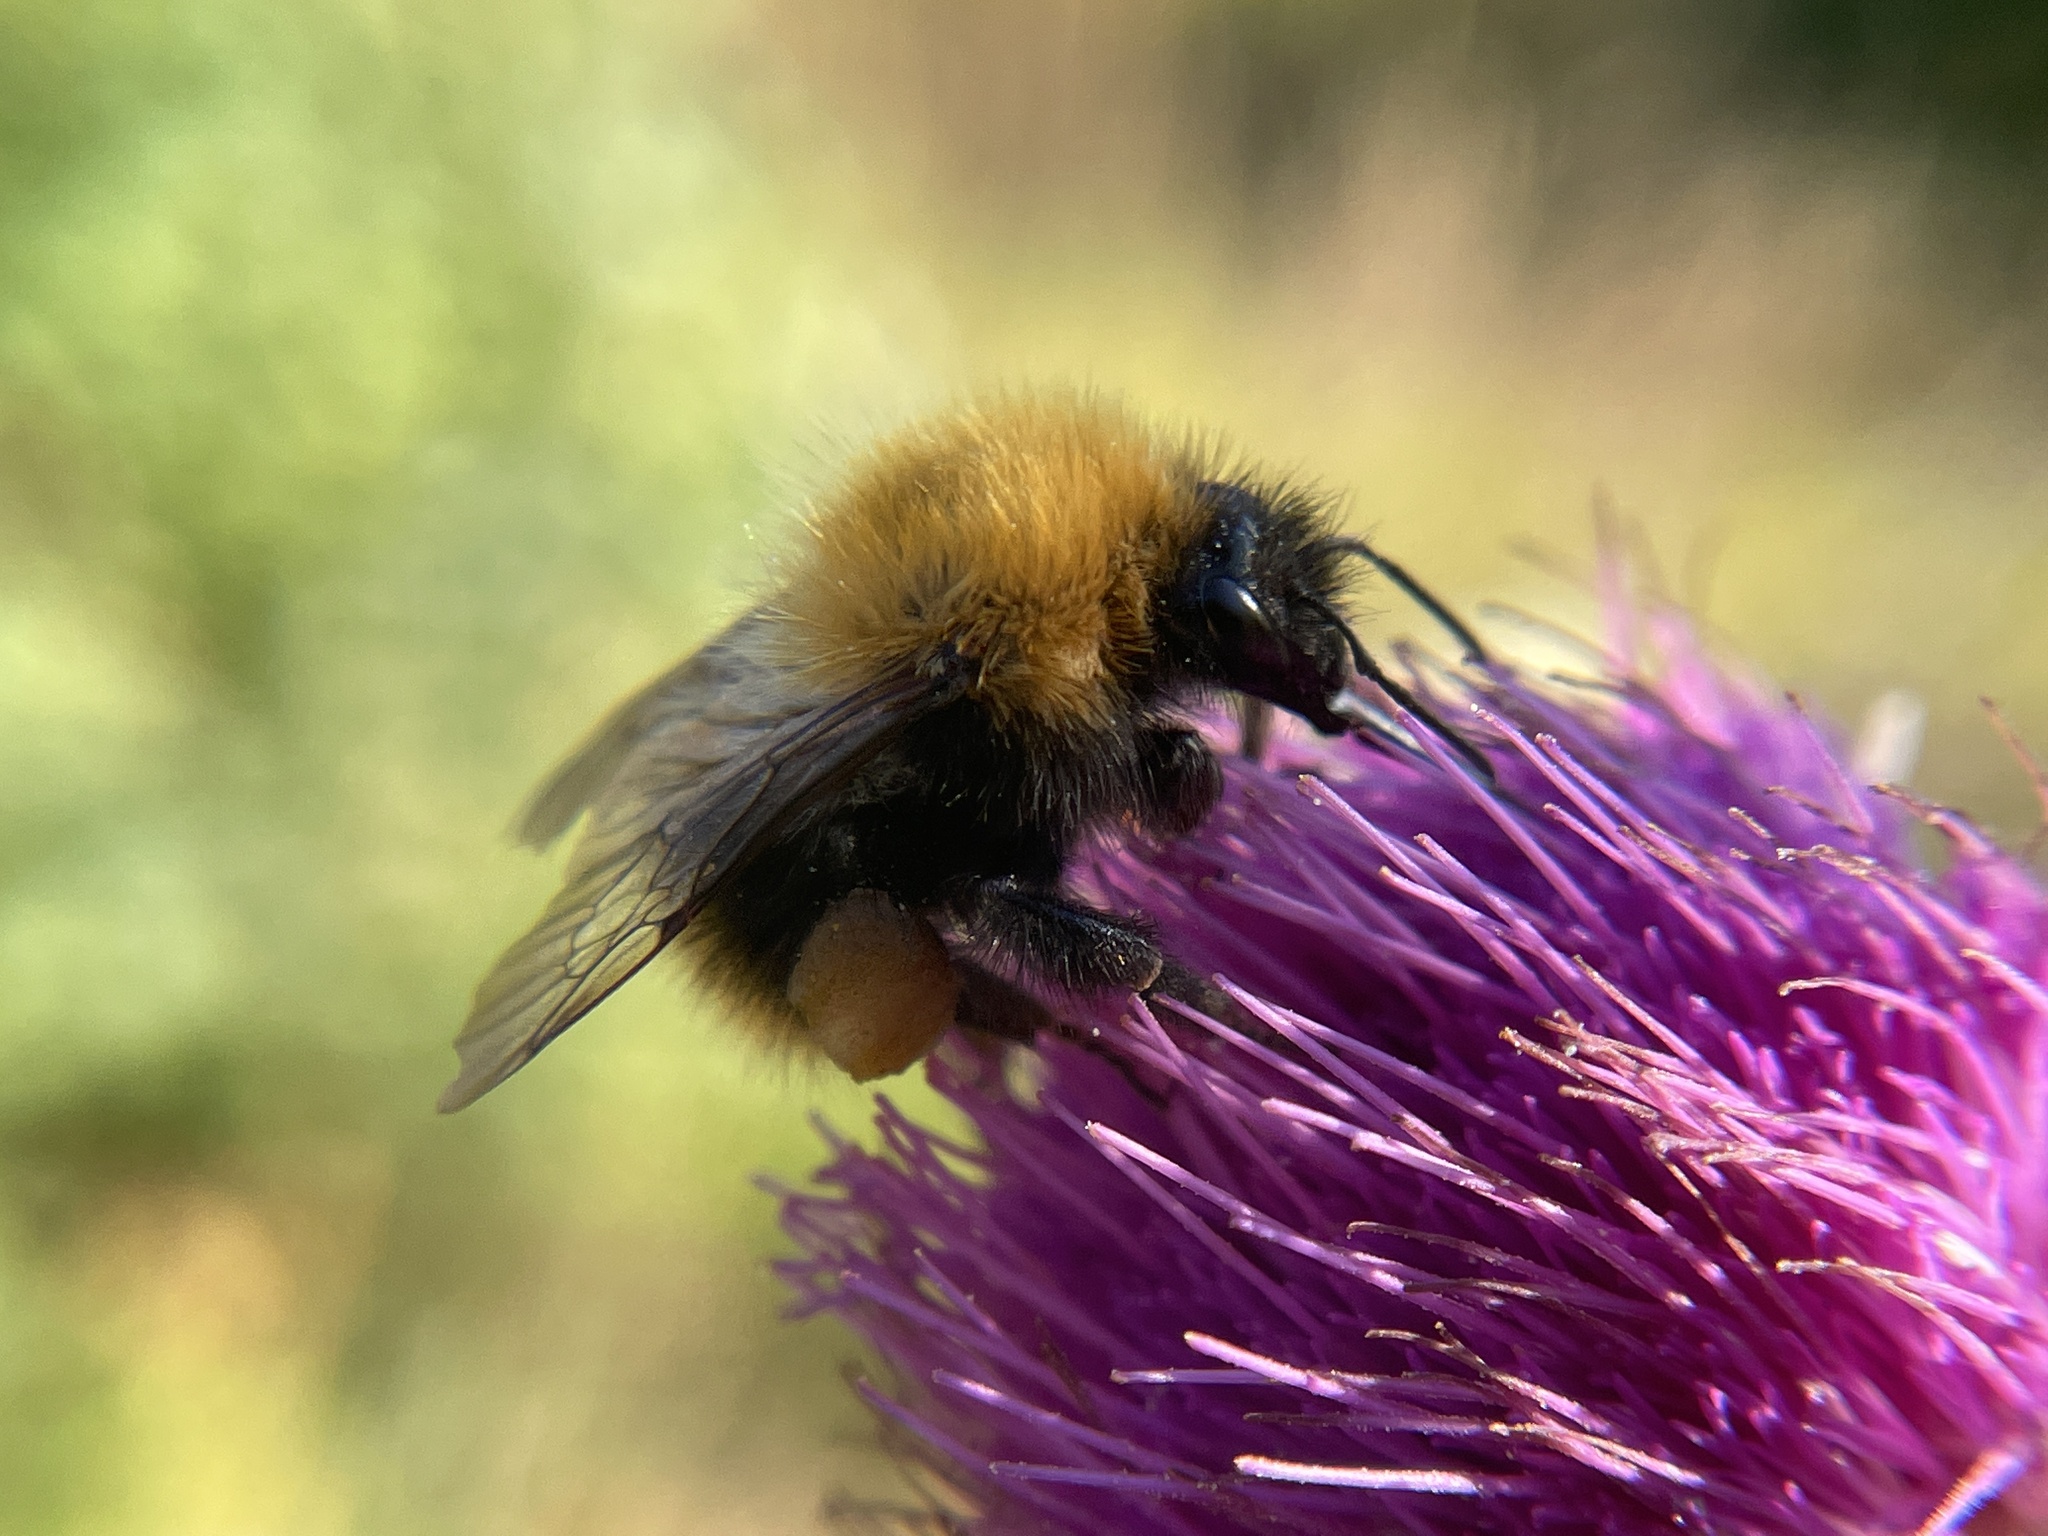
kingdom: Animalia
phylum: Arthropoda
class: Insecta
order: Hymenoptera
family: Apidae
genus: Bombus
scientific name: Bombus pascuorum
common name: Common carder bee
